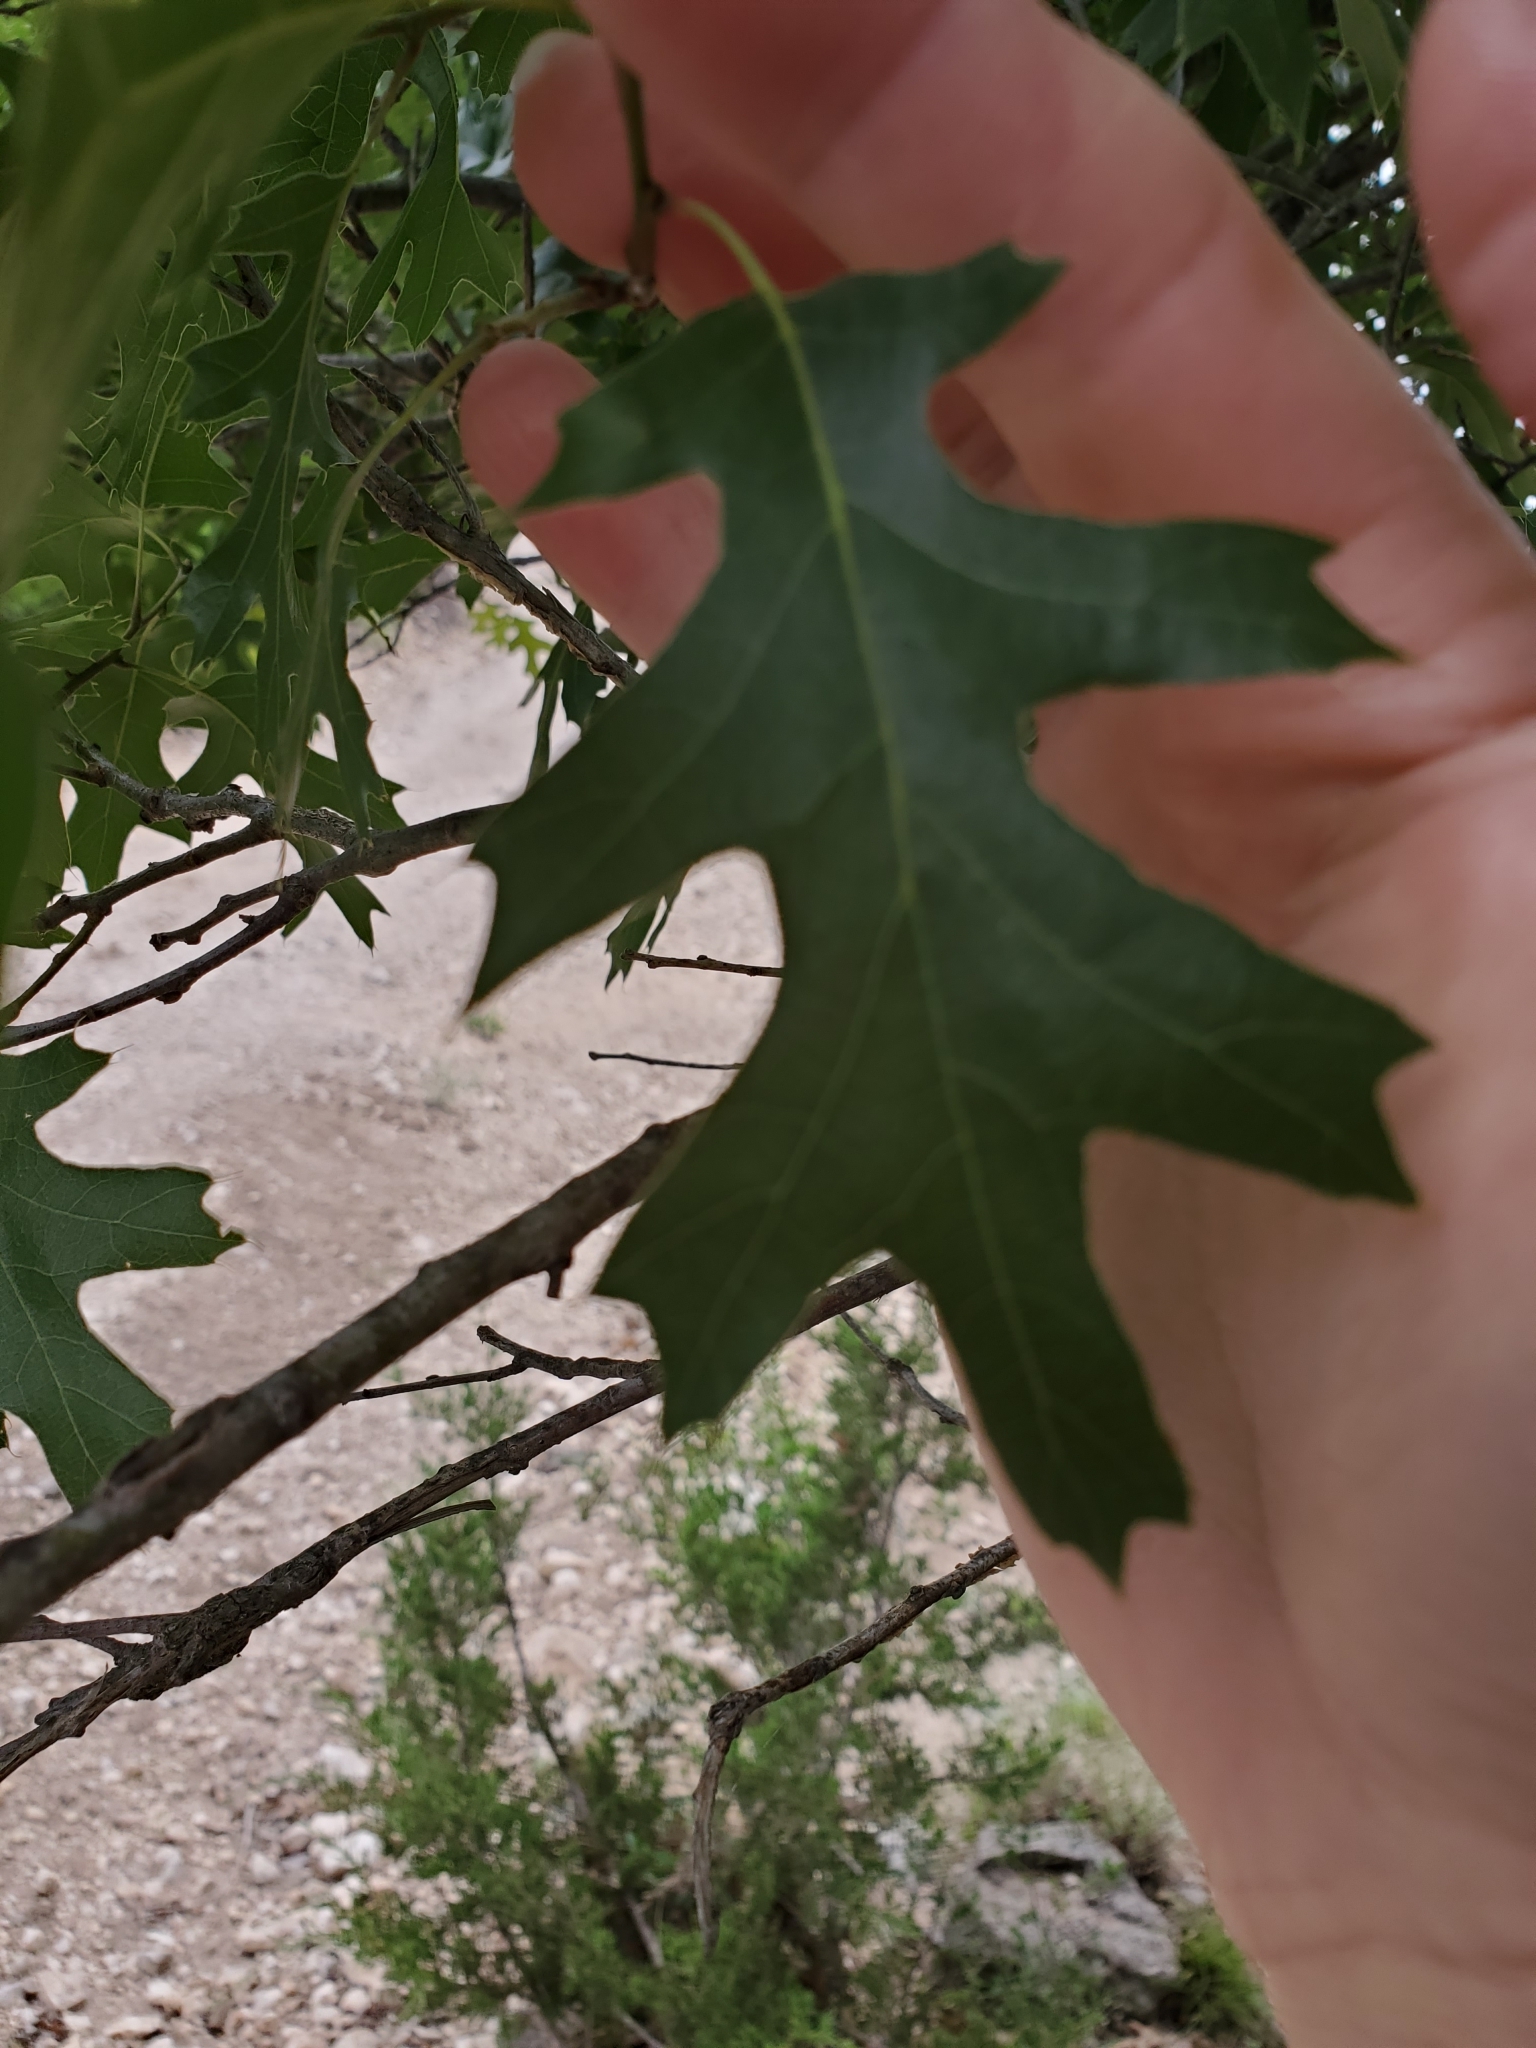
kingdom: Plantae
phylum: Tracheophyta
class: Magnoliopsida
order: Fagales
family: Fagaceae
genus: Quercus
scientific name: Quercus buckleyi
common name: Buckley oak
